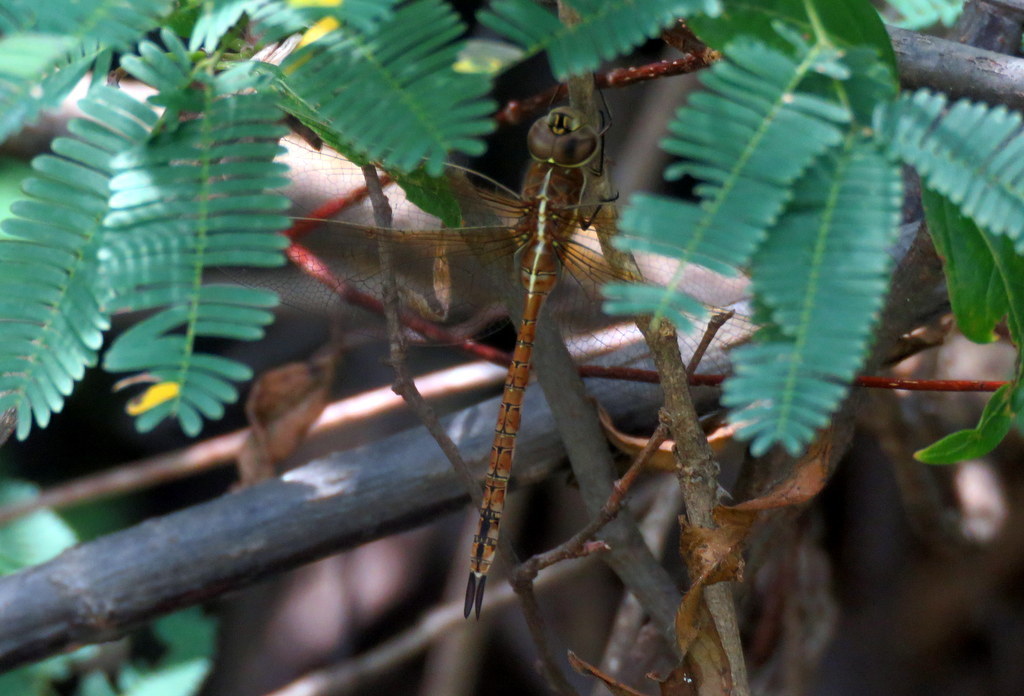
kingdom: Animalia
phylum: Arthropoda
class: Insecta
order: Odonata
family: Aeshnidae
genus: Rhionaeschna
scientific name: Rhionaeschna bonariensis
